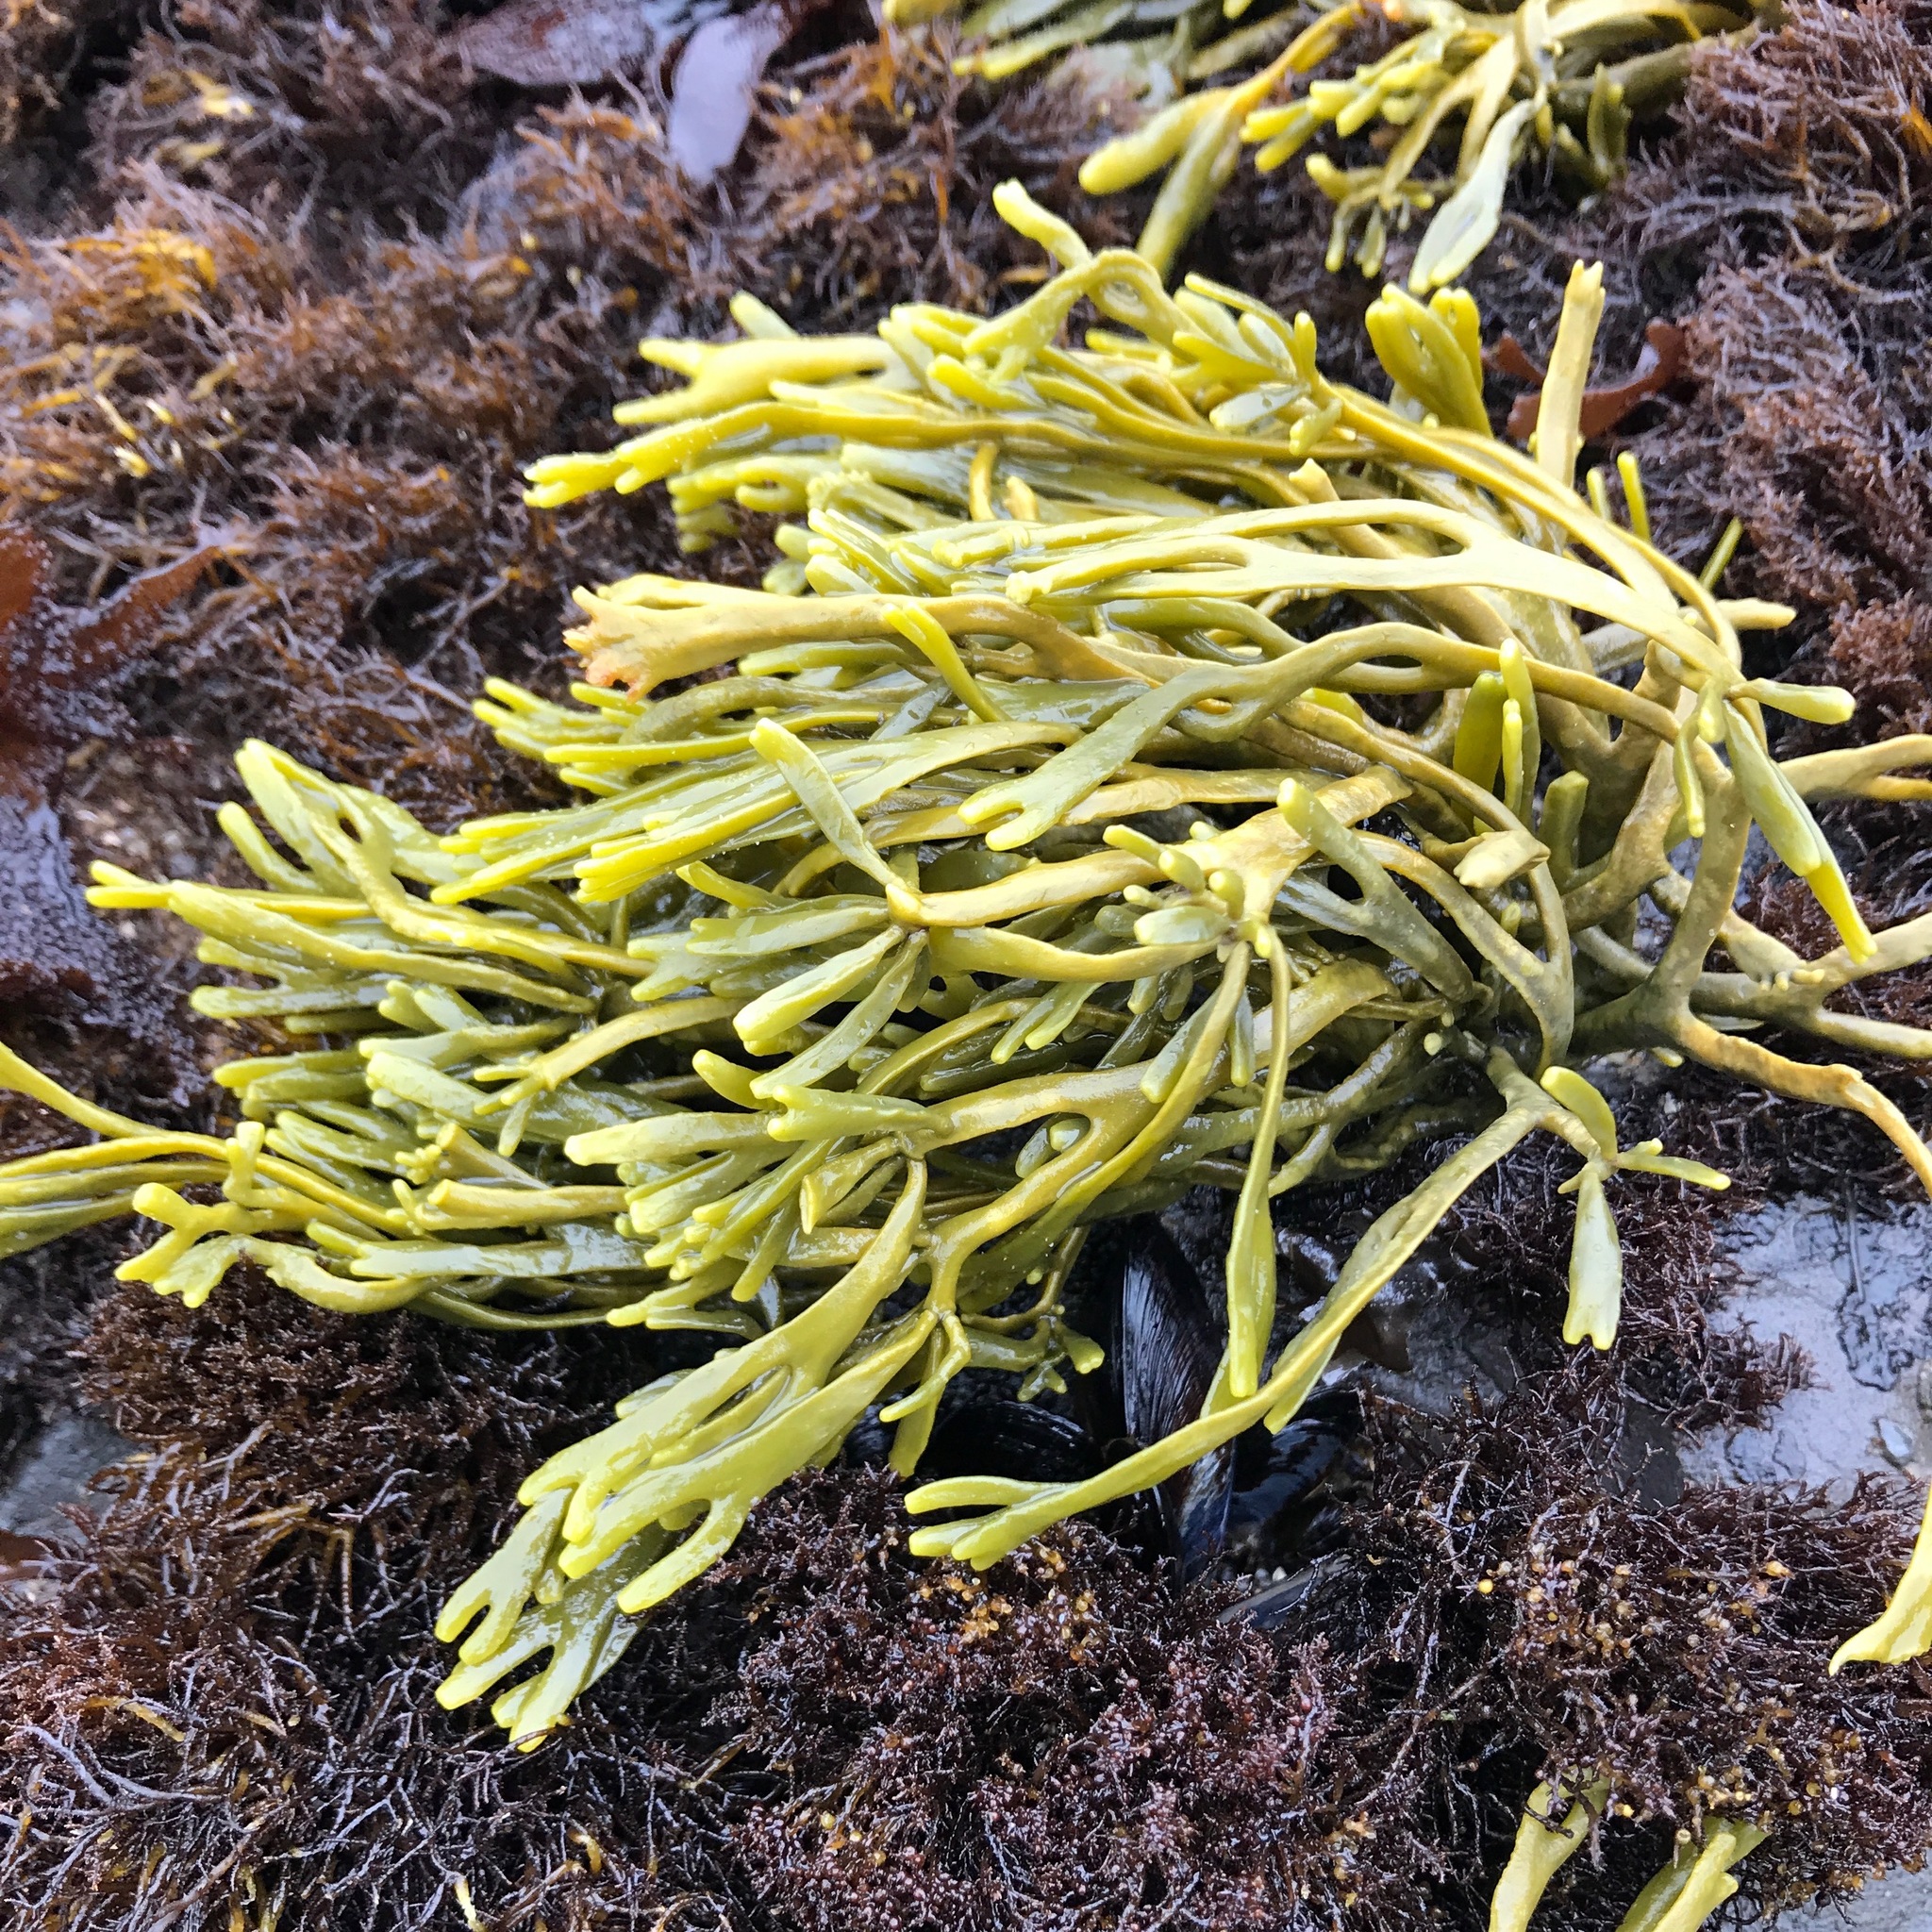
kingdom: Chromista
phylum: Ochrophyta
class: Phaeophyceae
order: Fucales
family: Fucaceae
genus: Silvetia
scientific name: Silvetia
